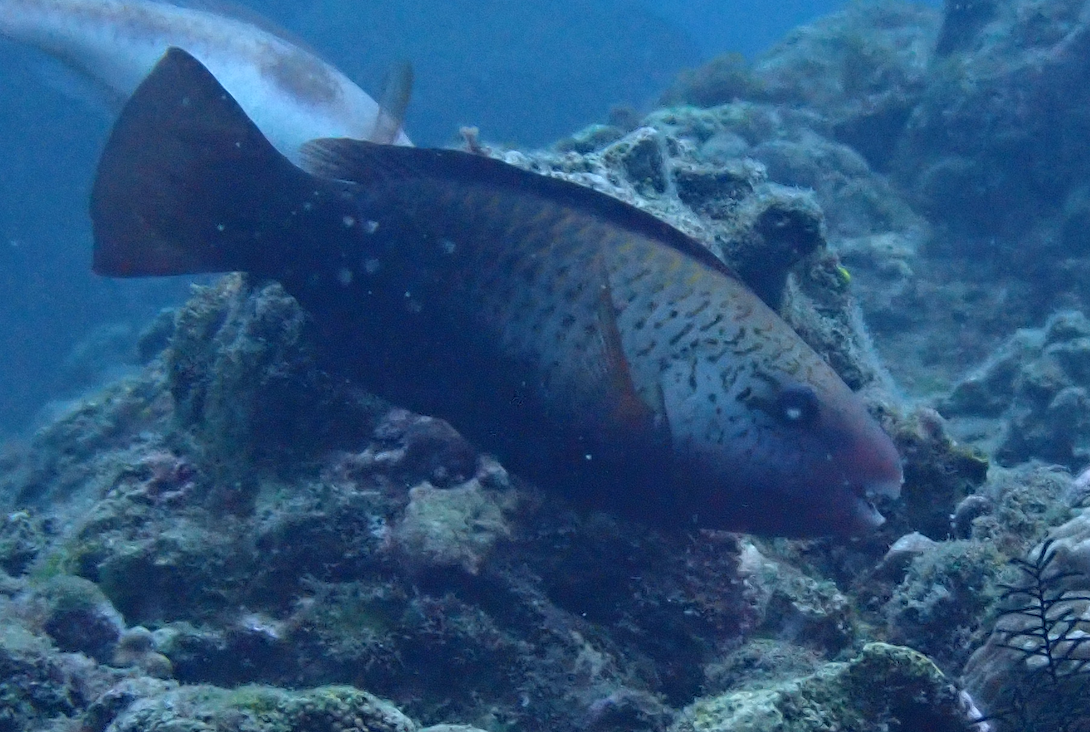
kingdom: Animalia
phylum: Chordata
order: Perciformes
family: Scaridae
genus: Chlorurus
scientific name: Chlorurus spilurus
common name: Bullethead parrotfish
